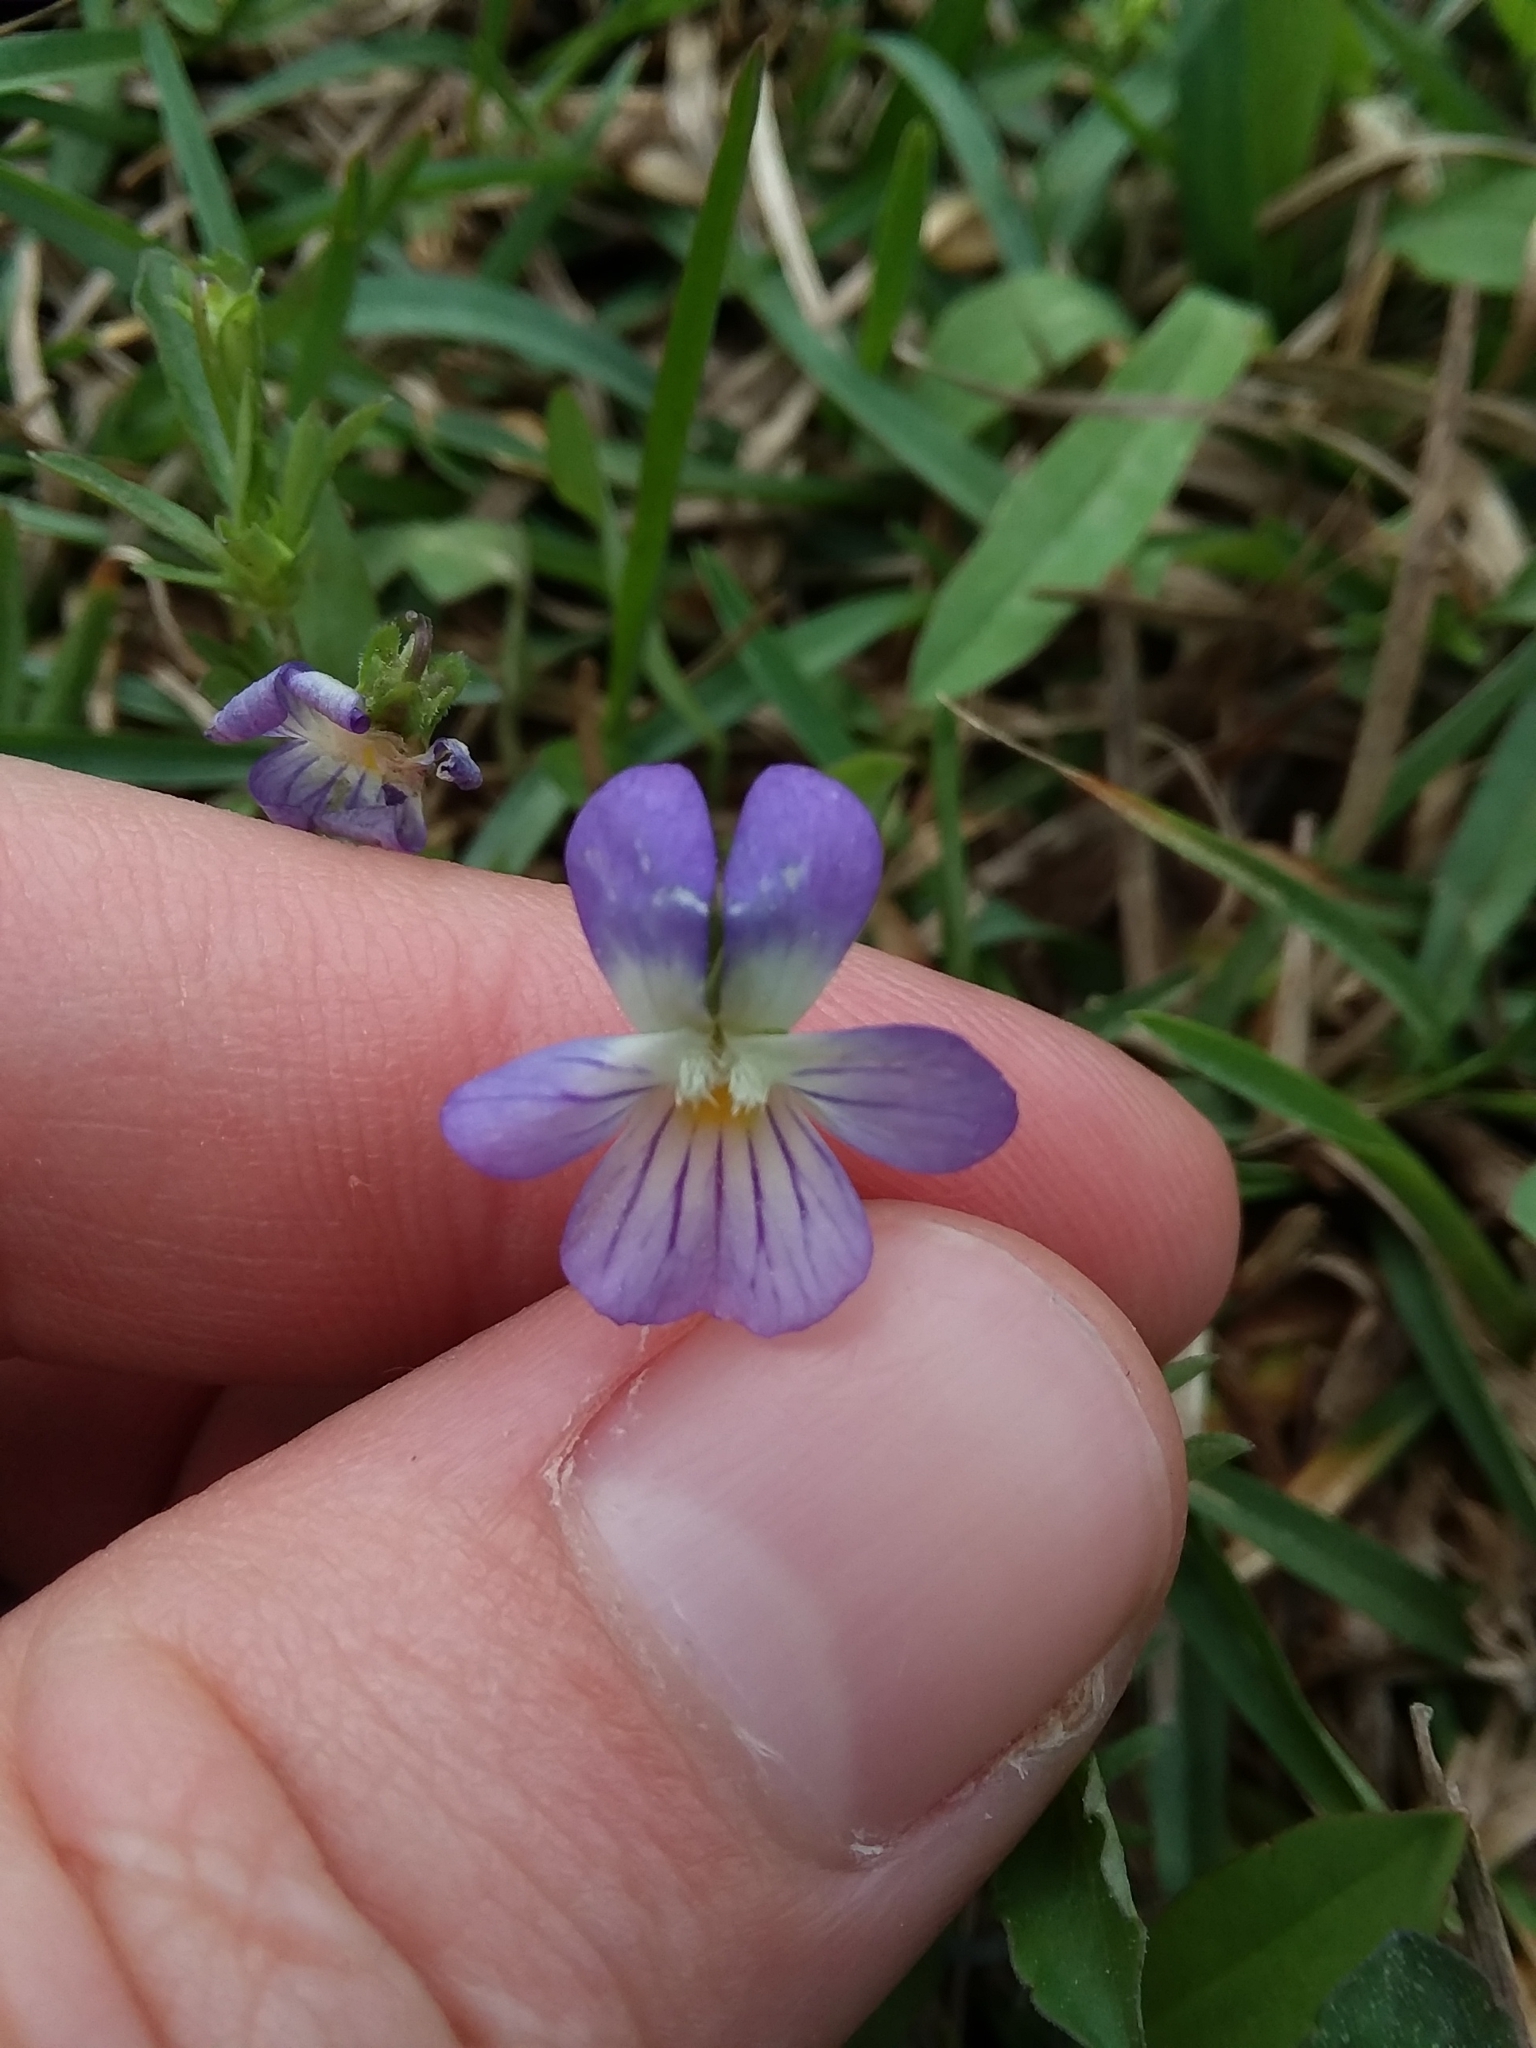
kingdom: Plantae
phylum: Tracheophyta
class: Magnoliopsida
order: Malpighiales
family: Violaceae
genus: Viola
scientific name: Viola rafinesquei
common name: American field pansy
